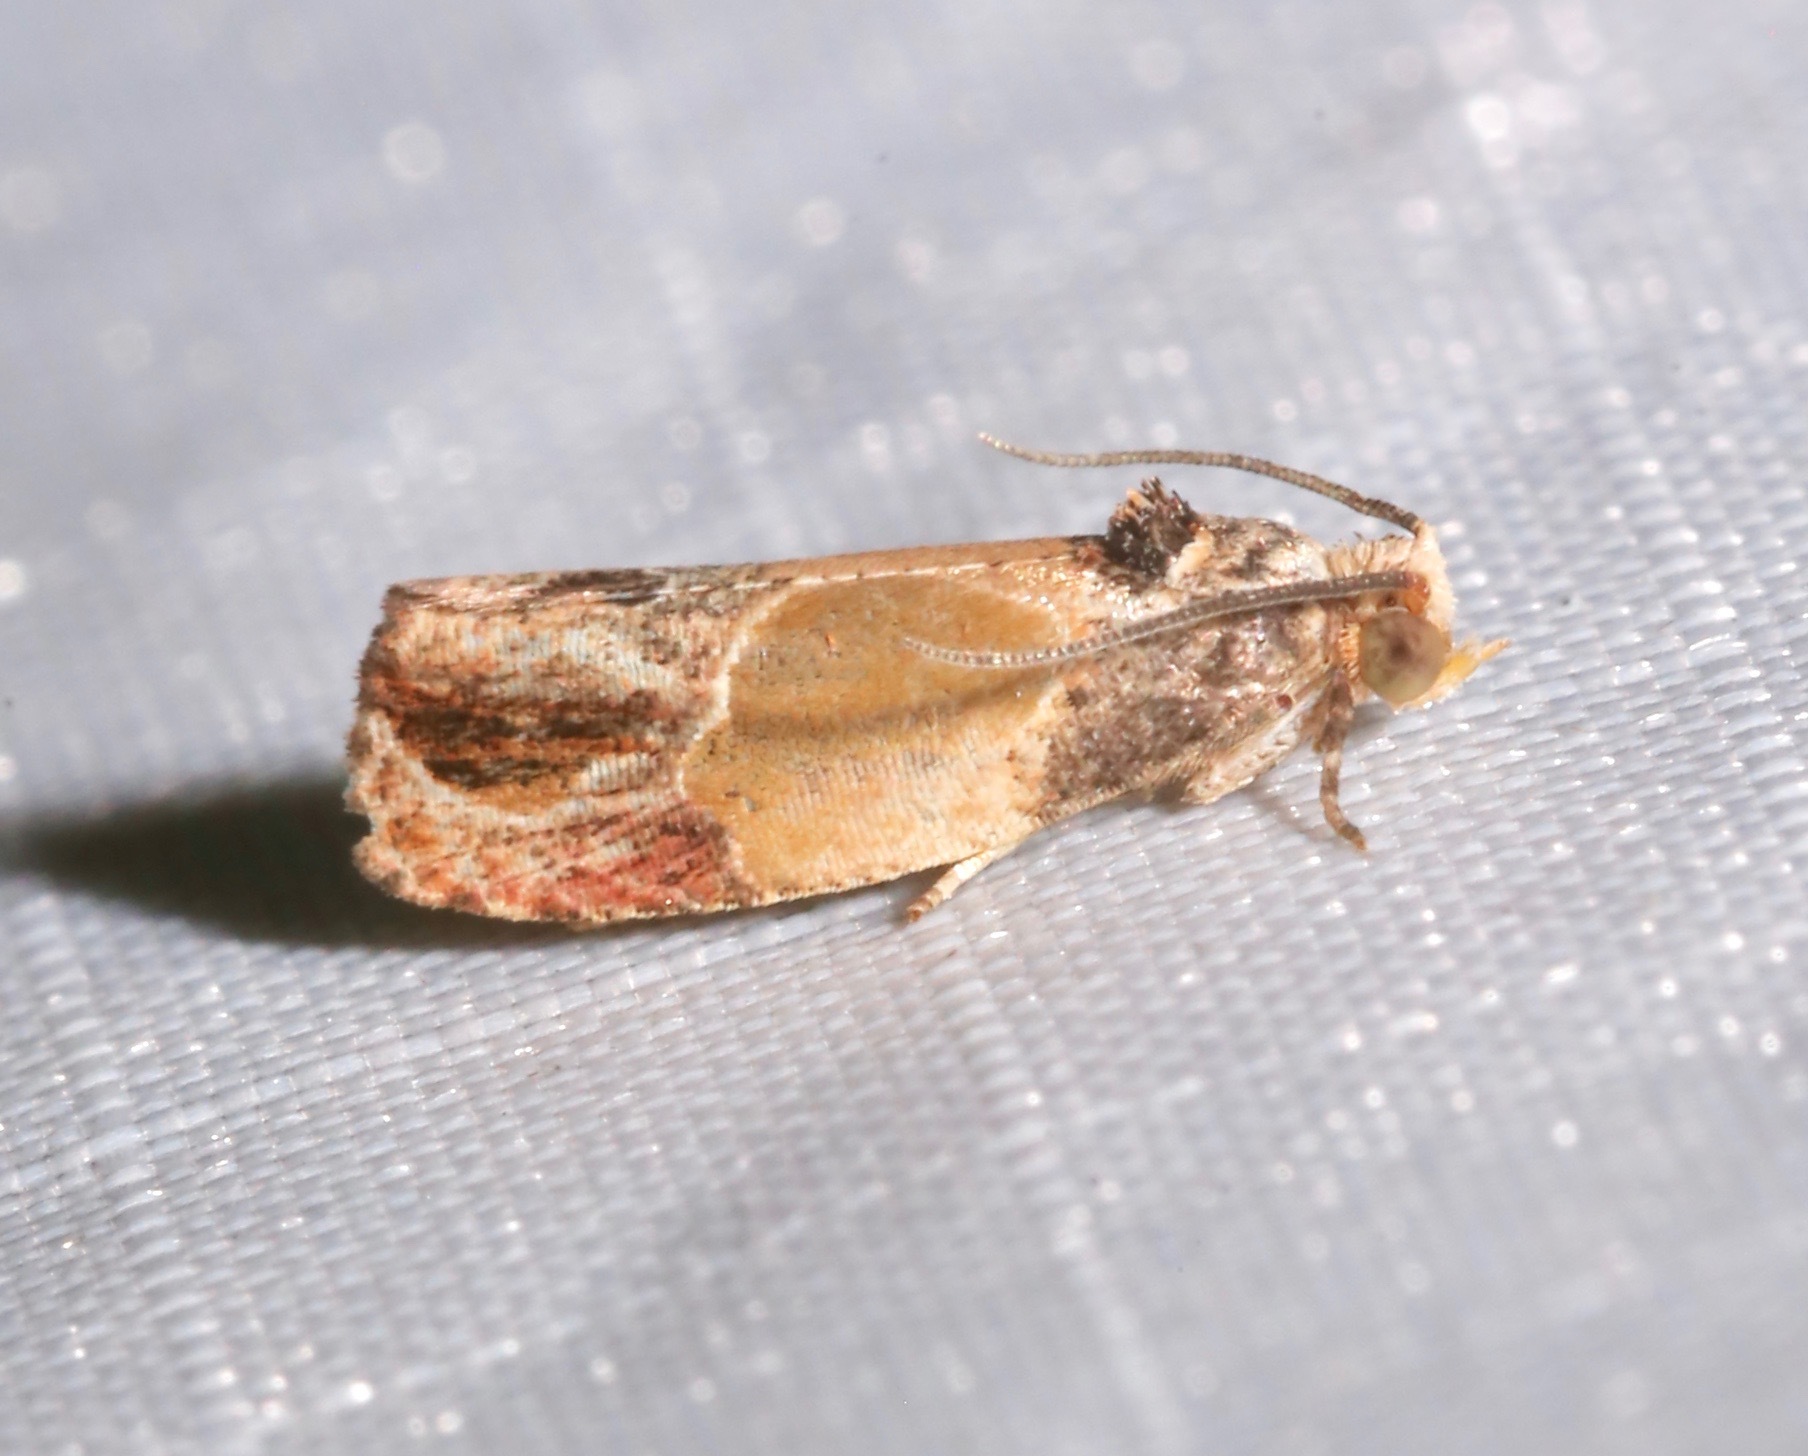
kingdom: Animalia
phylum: Arthropoda
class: Insecta
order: Lepidoptera
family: Tortricidae
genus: Eumarozia
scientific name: Eumarozia malachitana
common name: Sculptured moth
